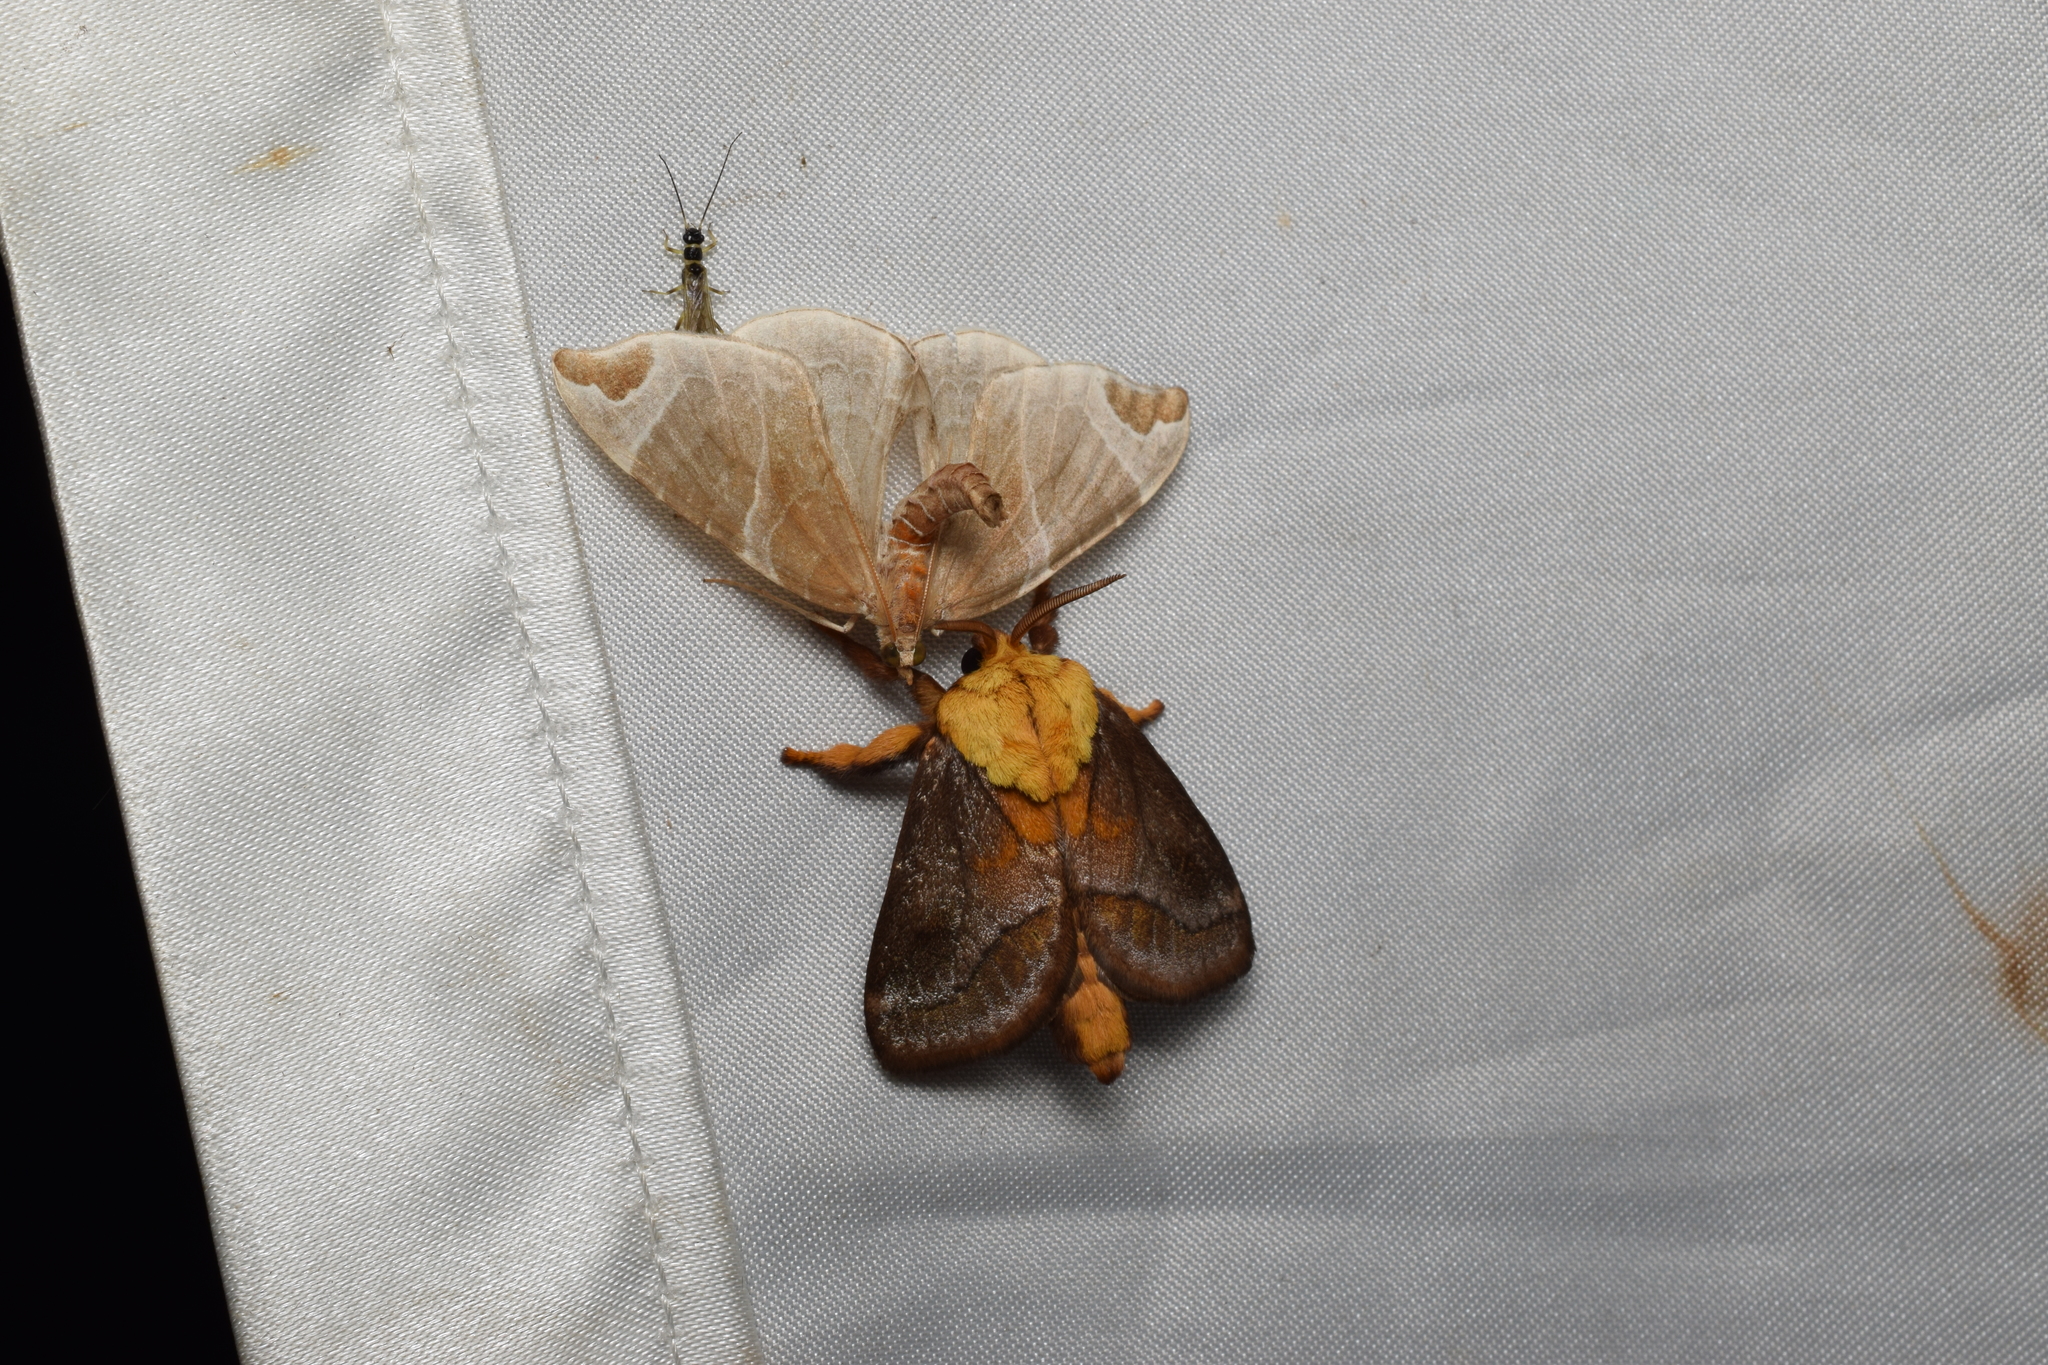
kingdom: Animalia
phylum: Arthropoda
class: Insecta
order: Lepidoptera
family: Geometridae
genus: Eulithis
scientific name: Eulithis ledereri
